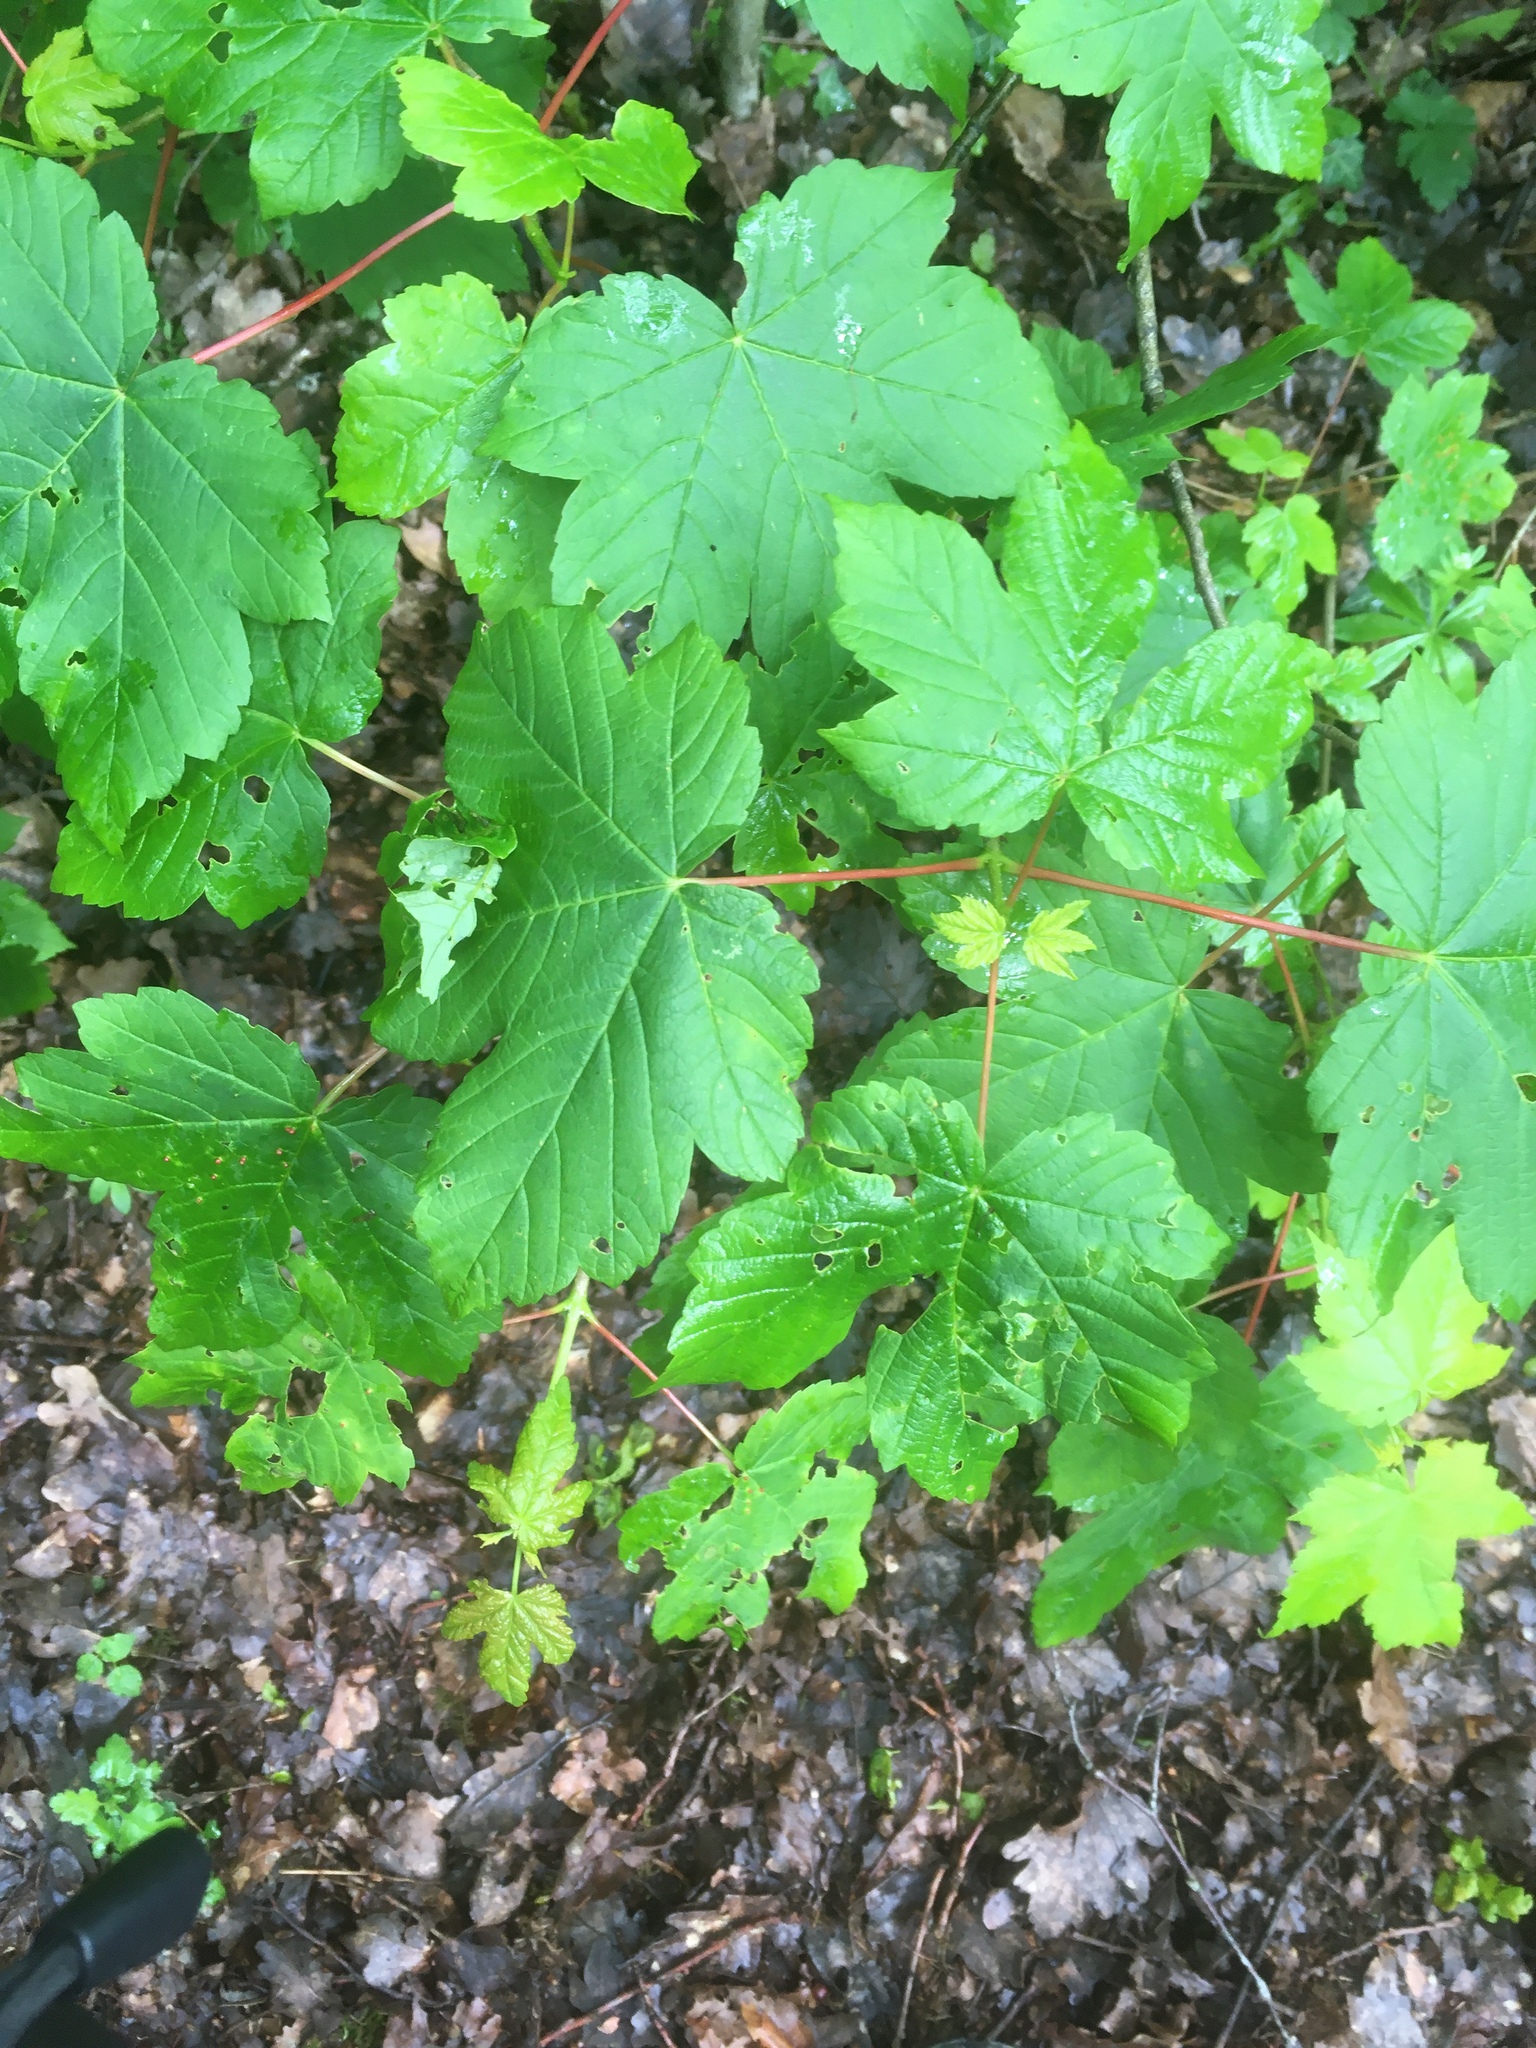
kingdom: Plantae
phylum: Tracheophyta
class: Magnoliopsida
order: Sapindales
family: Sapindaceae
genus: Acer
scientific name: Acer pseudoplatanus
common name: Sycamore
